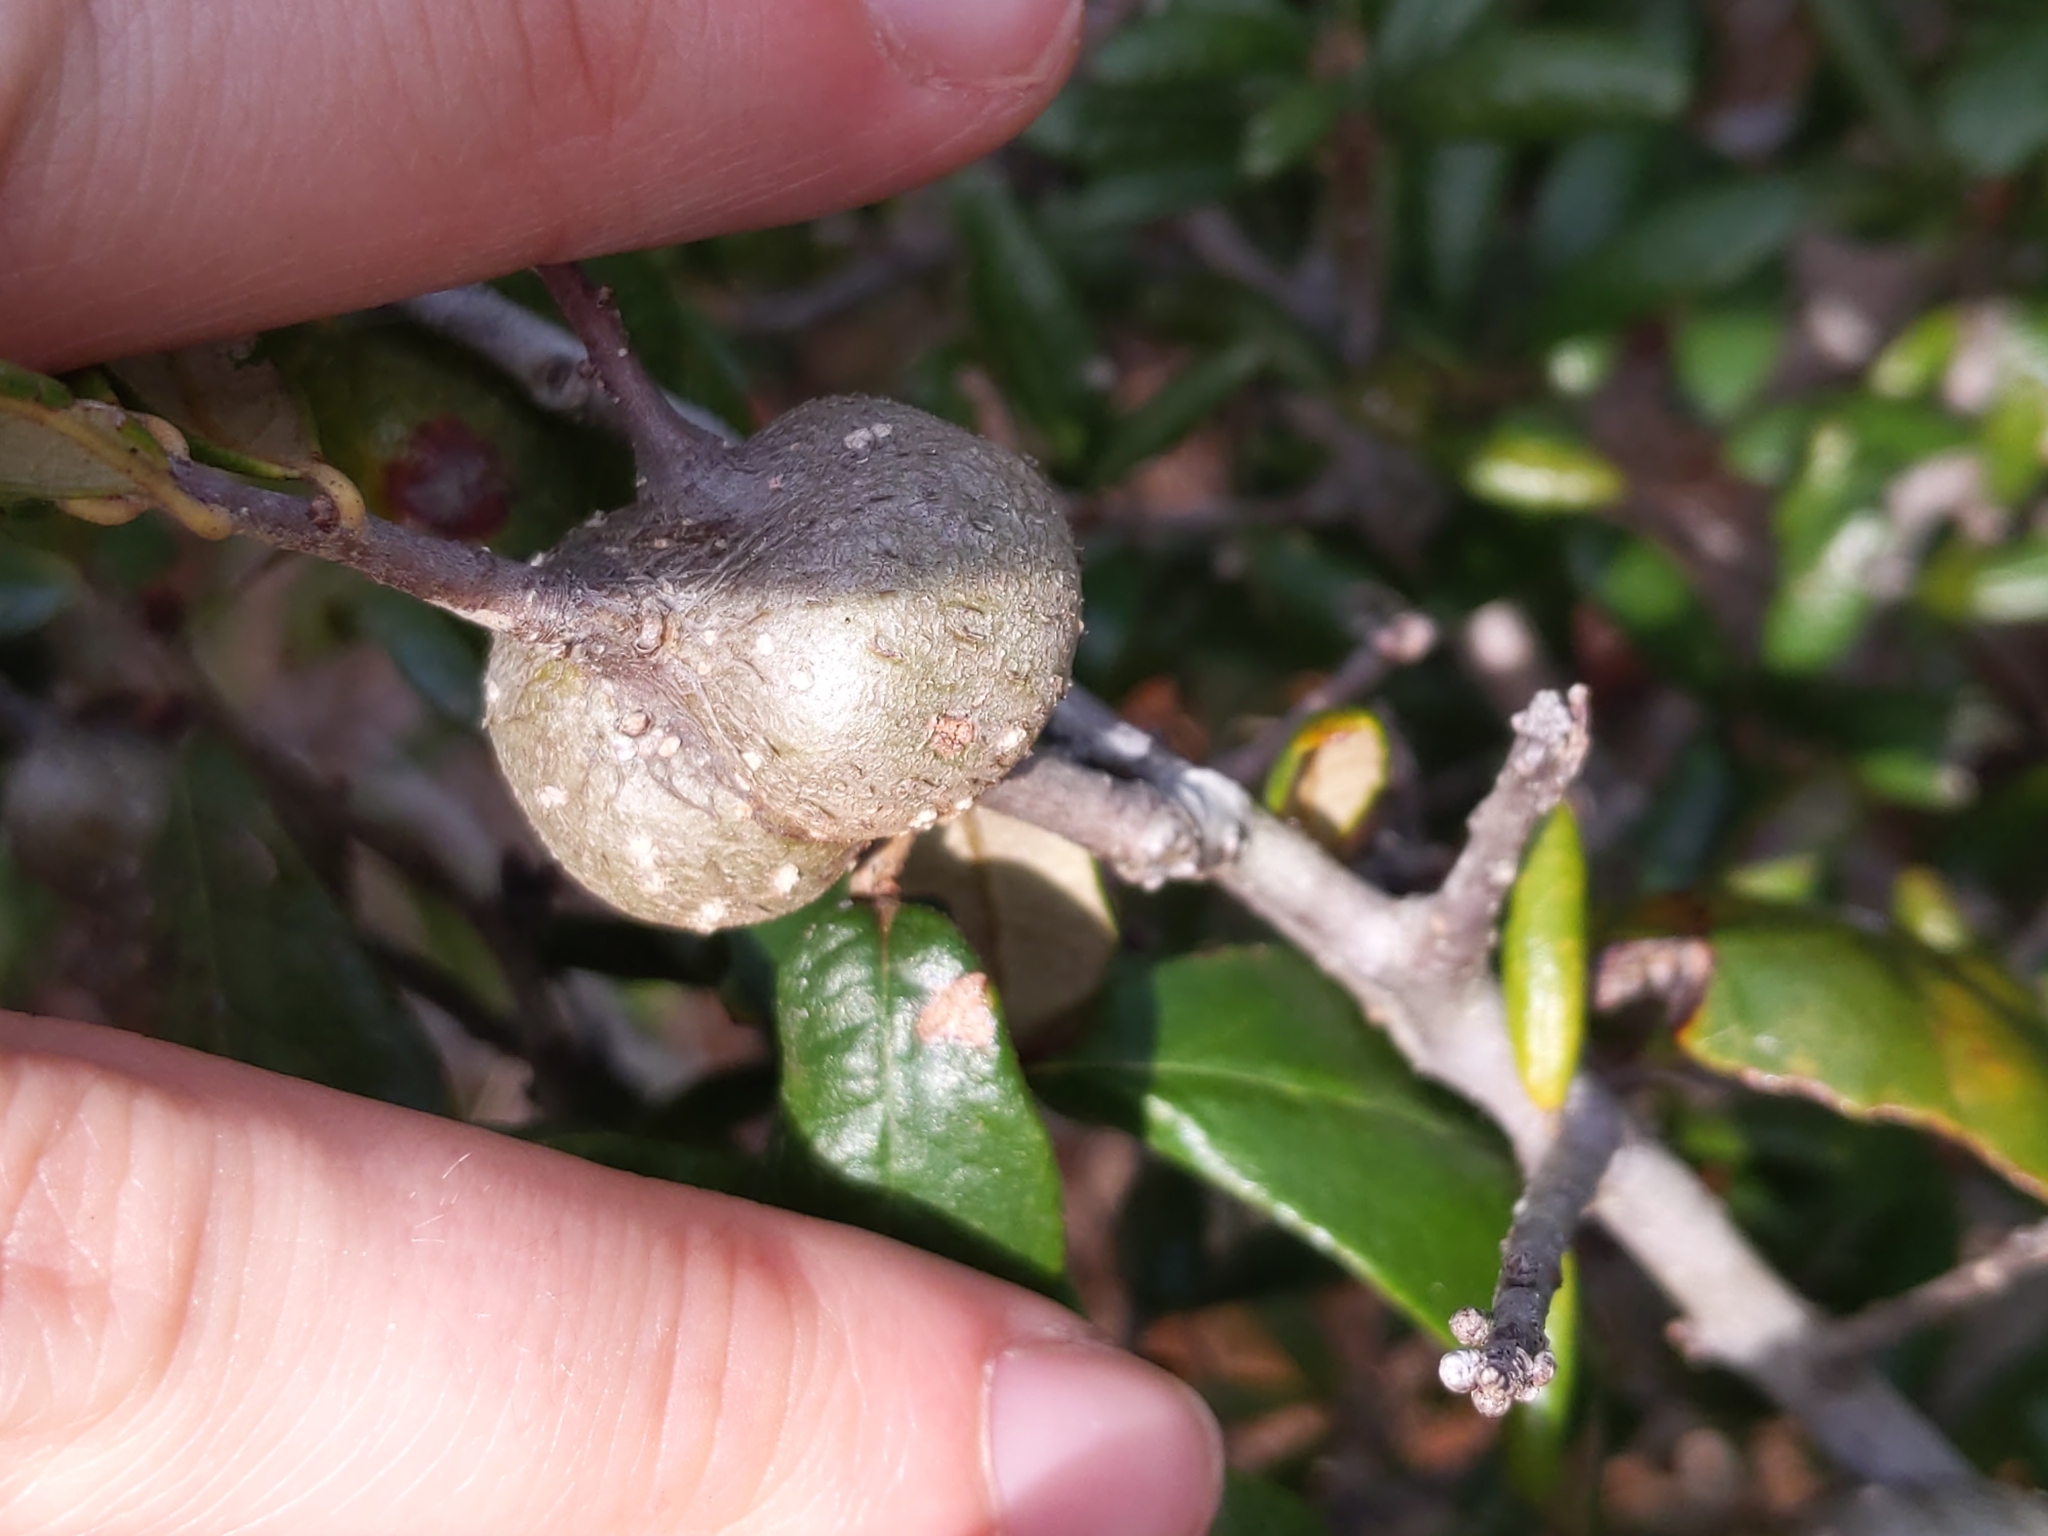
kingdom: Animalia
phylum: Arthropoda
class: Insecta
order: Hymenoptera
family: Cynipidae
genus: Callirhytis
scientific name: Callirhytis
